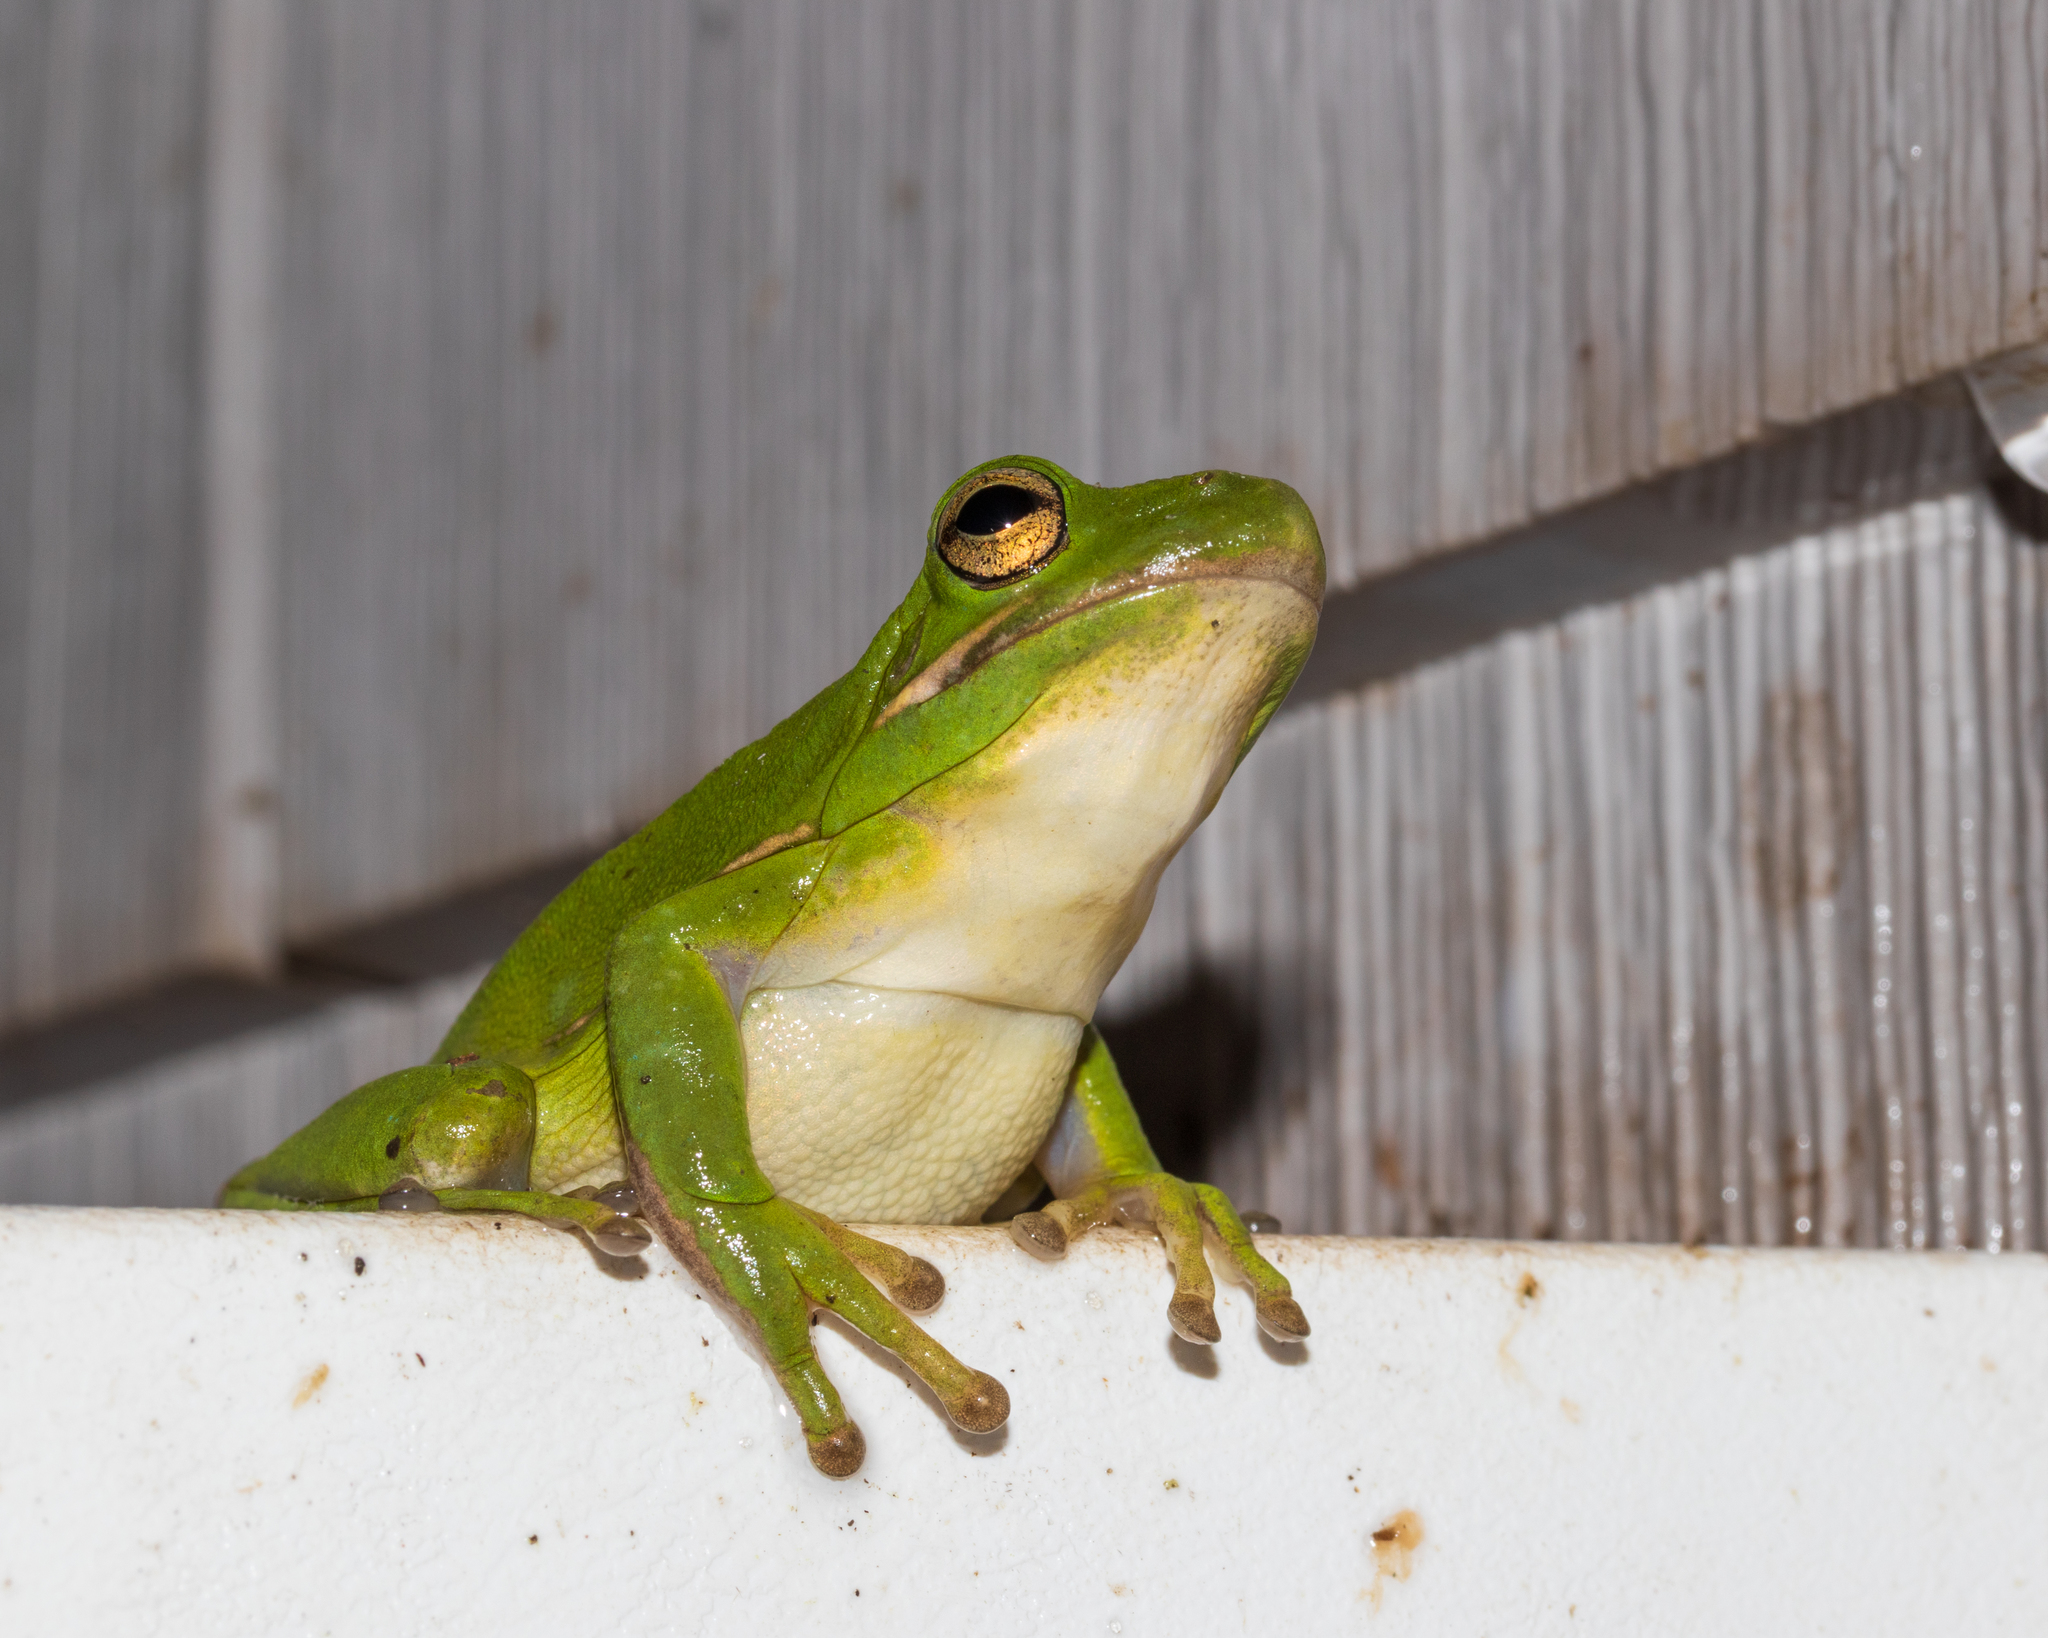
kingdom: Animalia
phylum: Chordata
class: Amphibia
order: Anura
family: Hylidae
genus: Dryophytes
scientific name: Dryophytes cinereus
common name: Green treefrog
